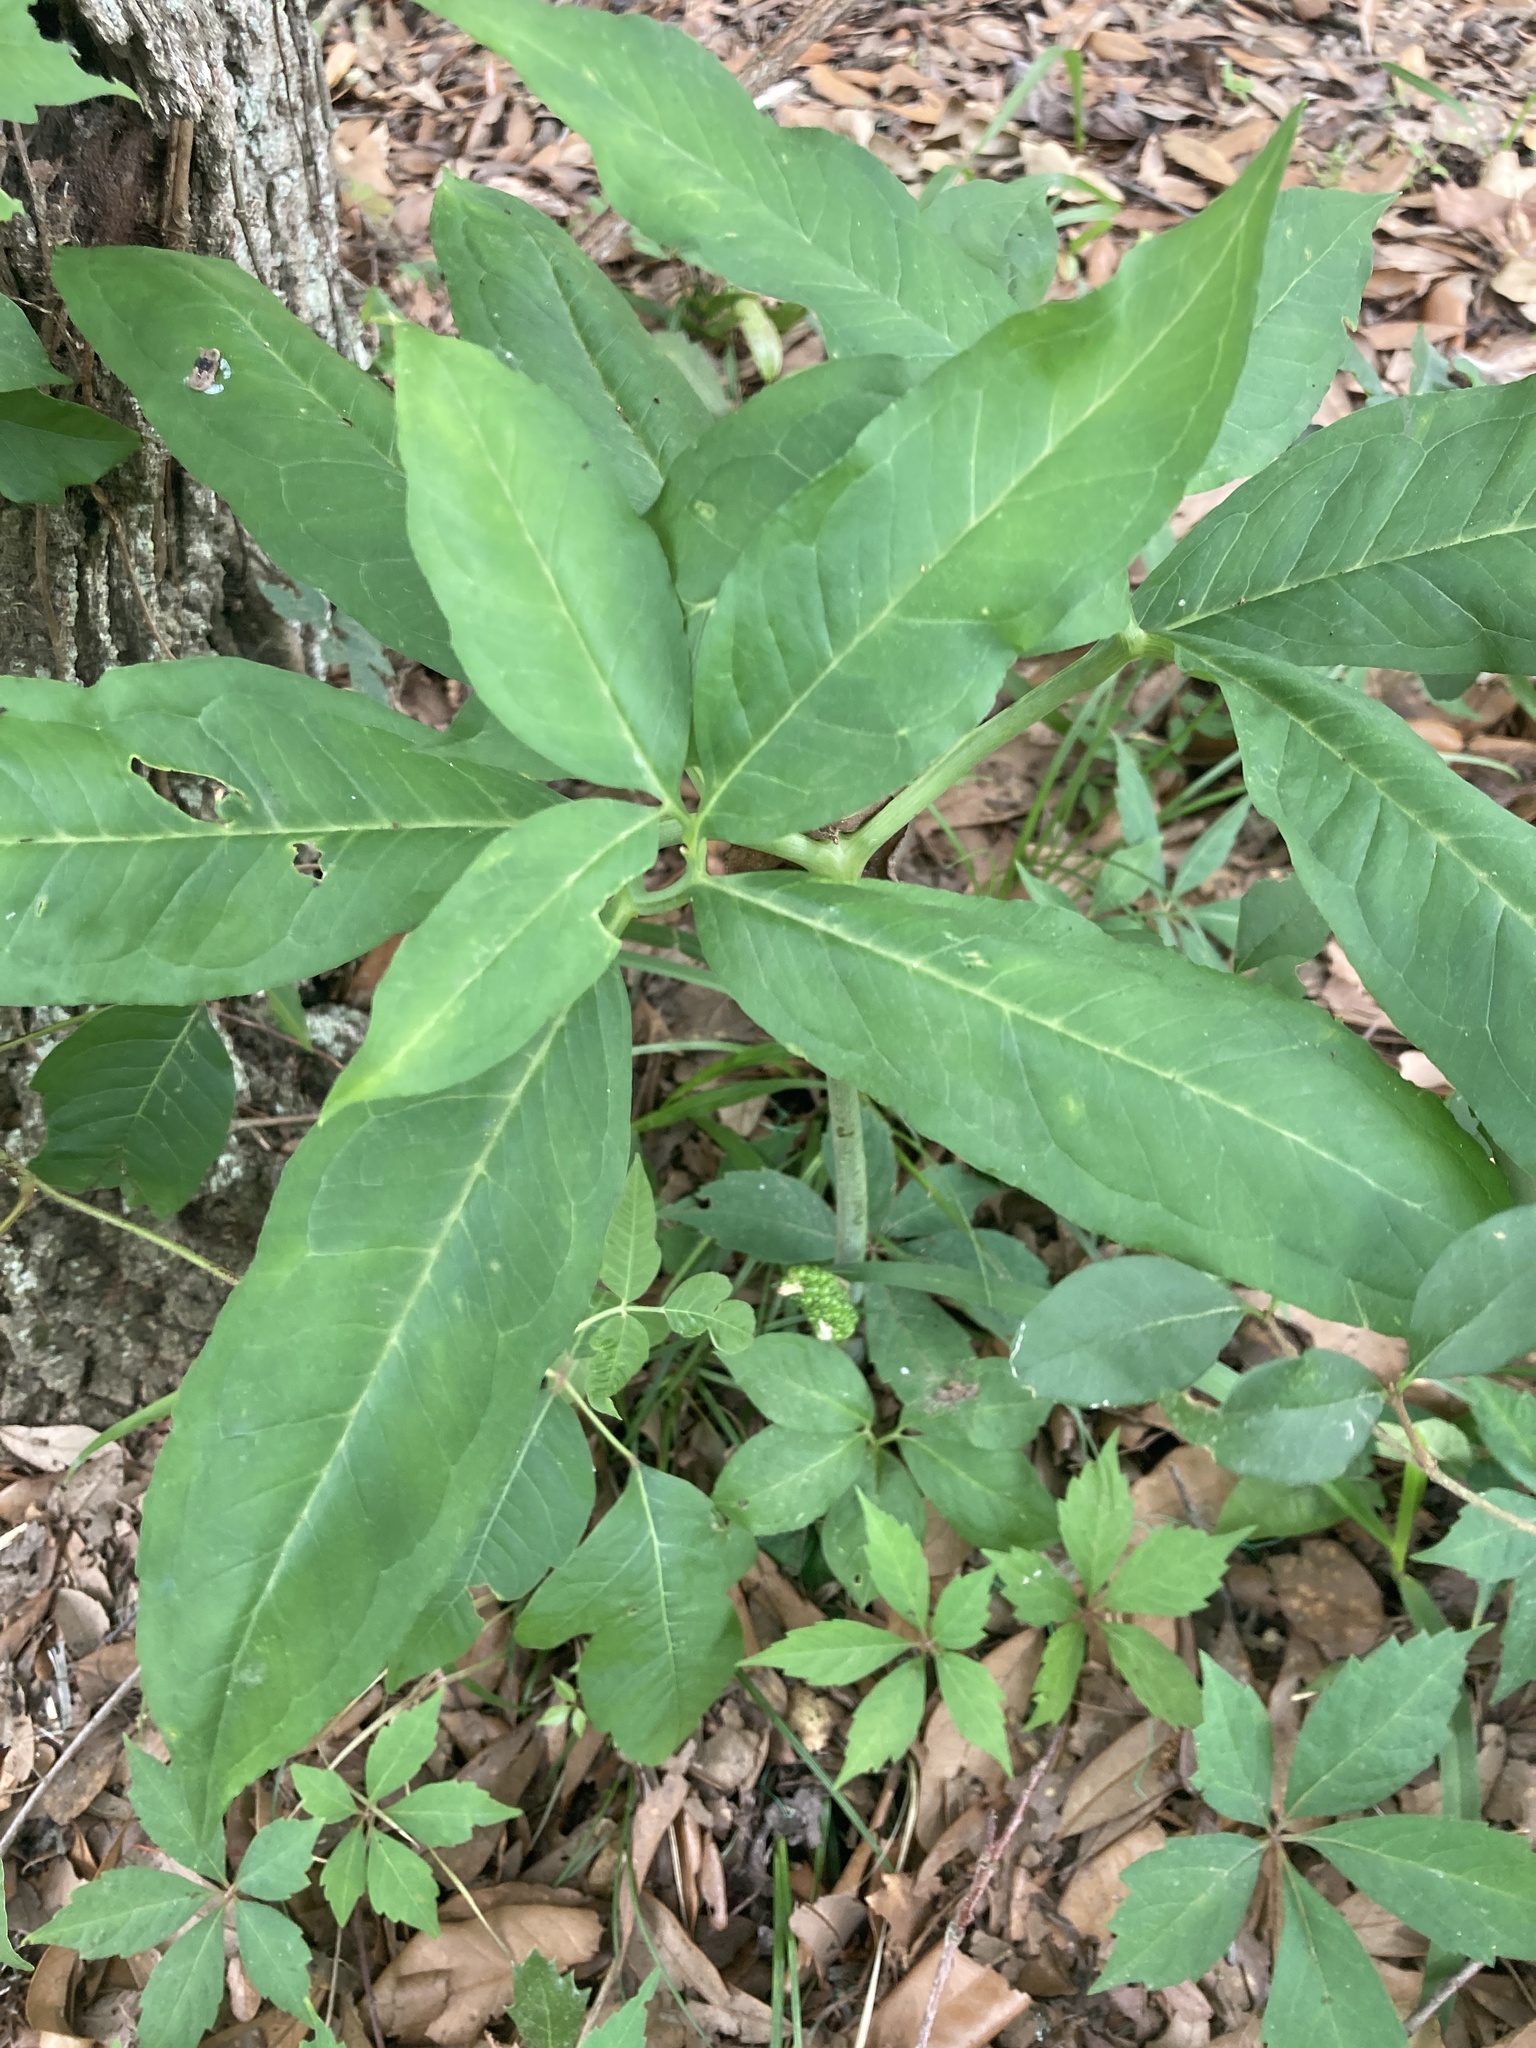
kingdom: Plantae
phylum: Tracheophyta
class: Liliopsida
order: Alismatales
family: Araceae
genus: Arisaema
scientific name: Arisaema dracontium
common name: Dragon-arum
